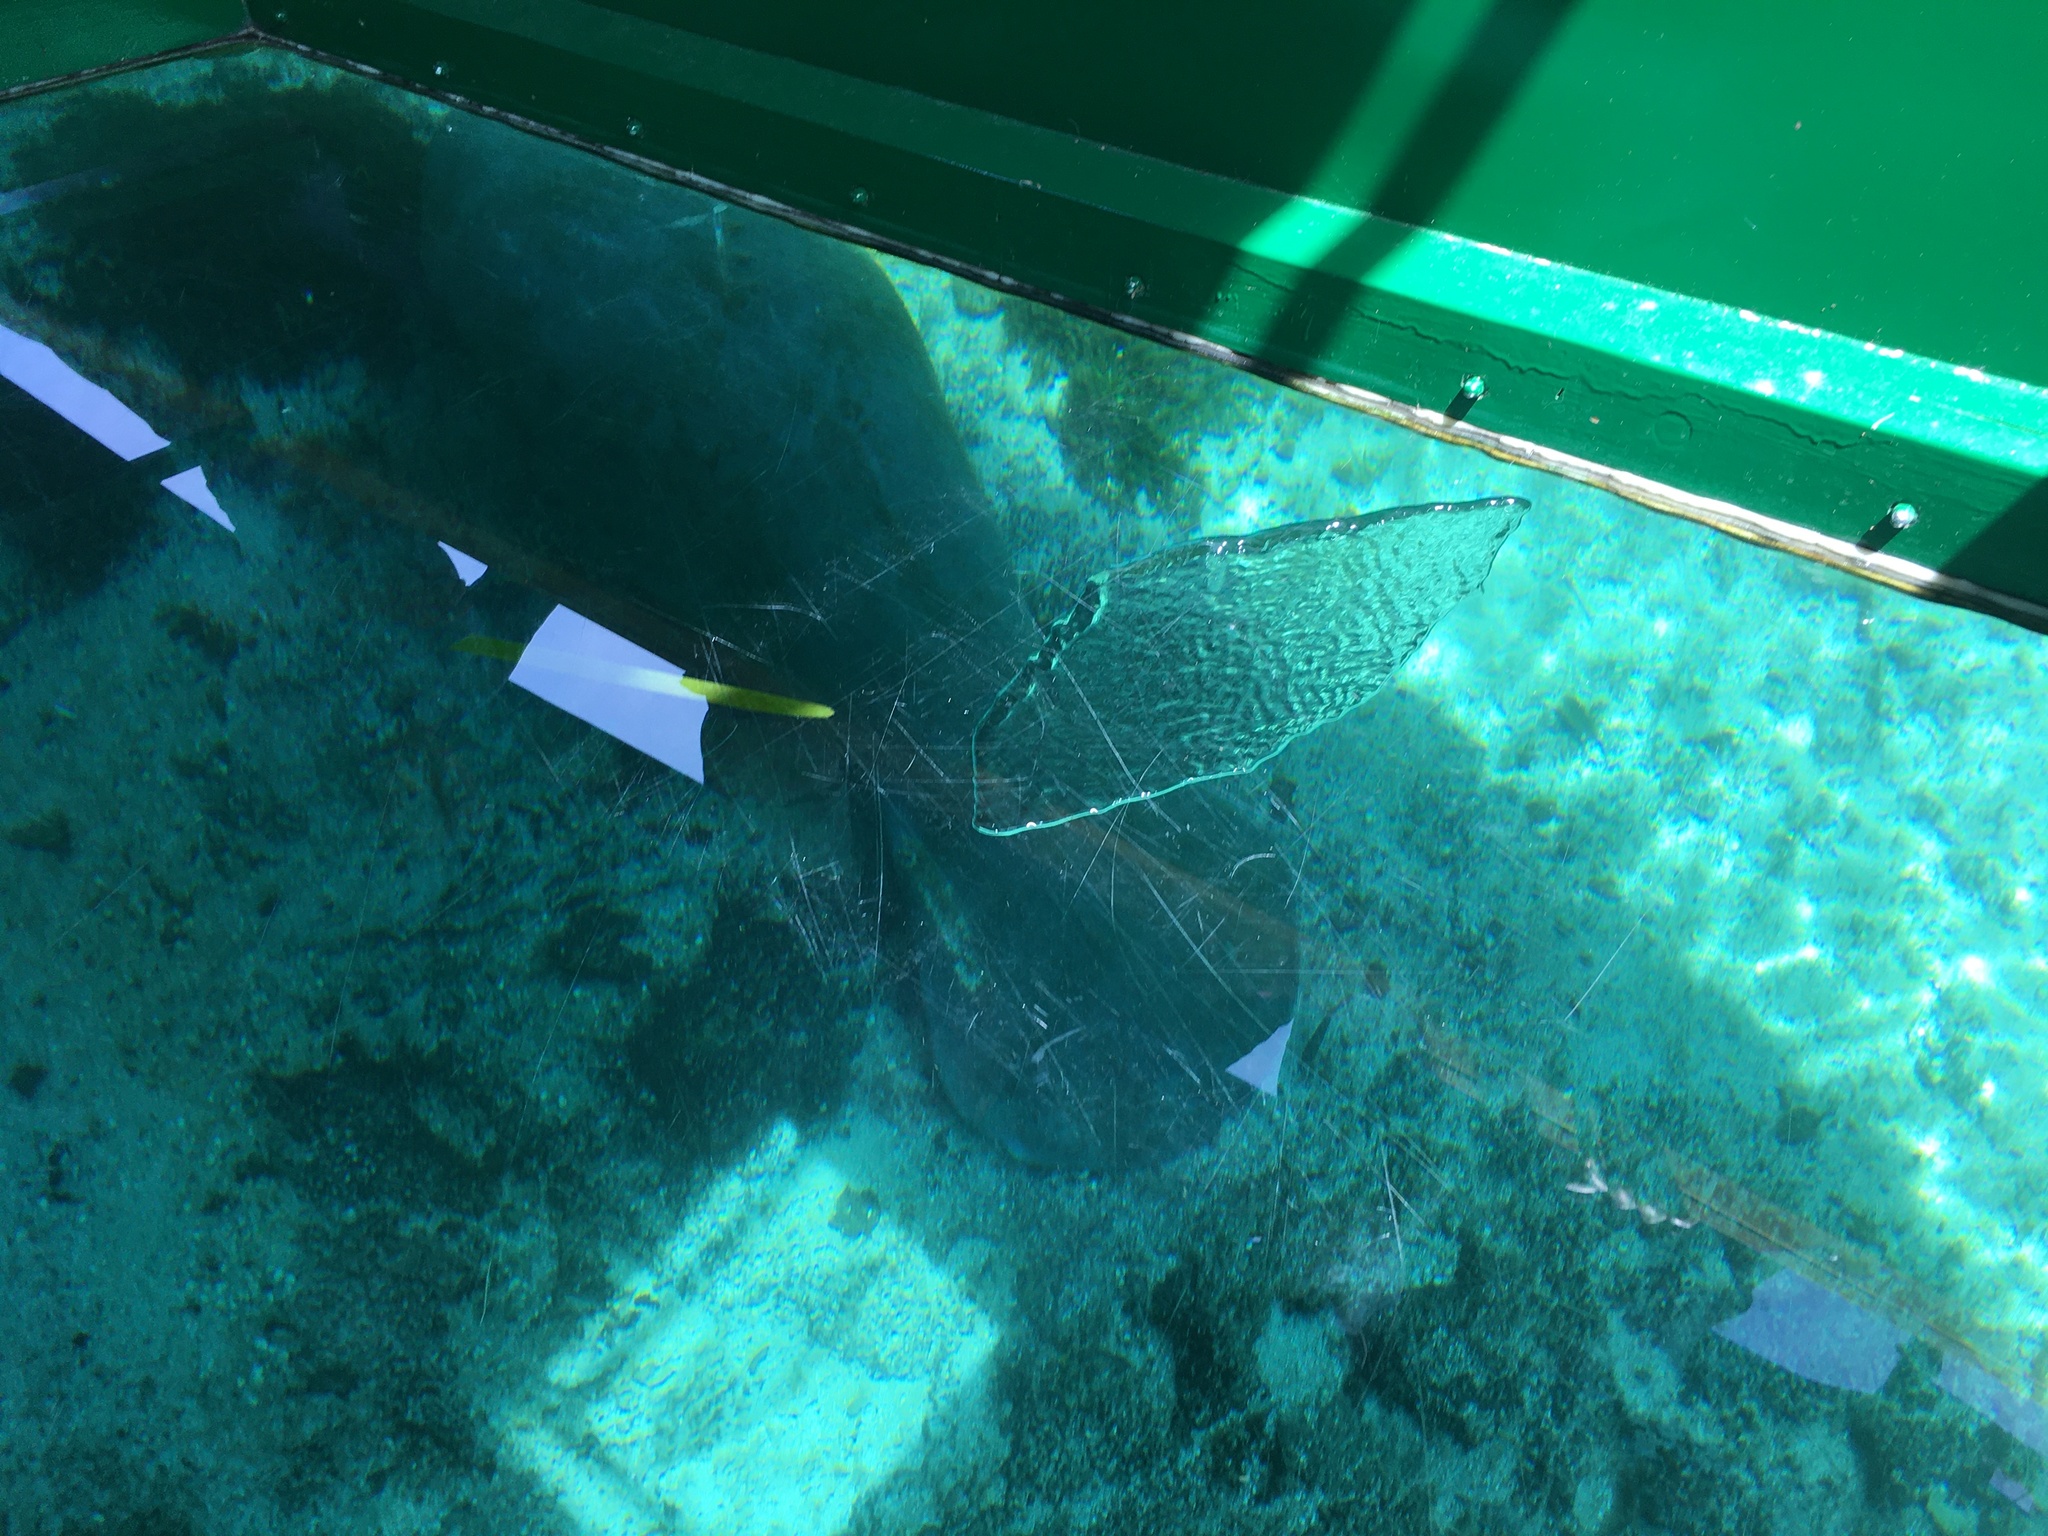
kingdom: Animalia
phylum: Chordata
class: Mammalia
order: Sirenia
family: Trichechidae
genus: Trichechus
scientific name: Trichechus manatus
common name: West indian manatee
